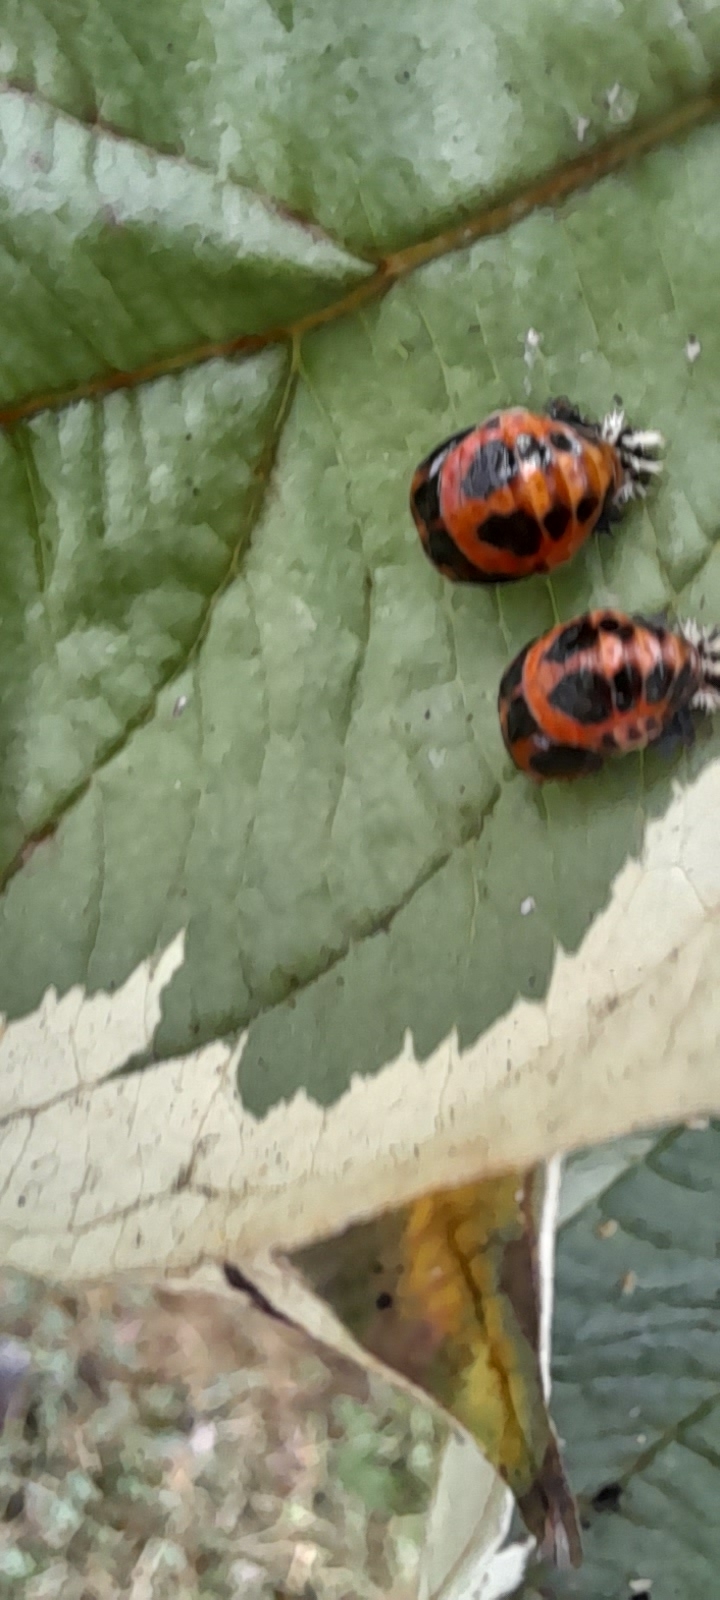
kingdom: Animalia
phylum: Arthropoda
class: Insecta
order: Coleoptera
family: Coccinellidae
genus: Harmonia
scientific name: Harmonia axyridis
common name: Harlequin ladybird
